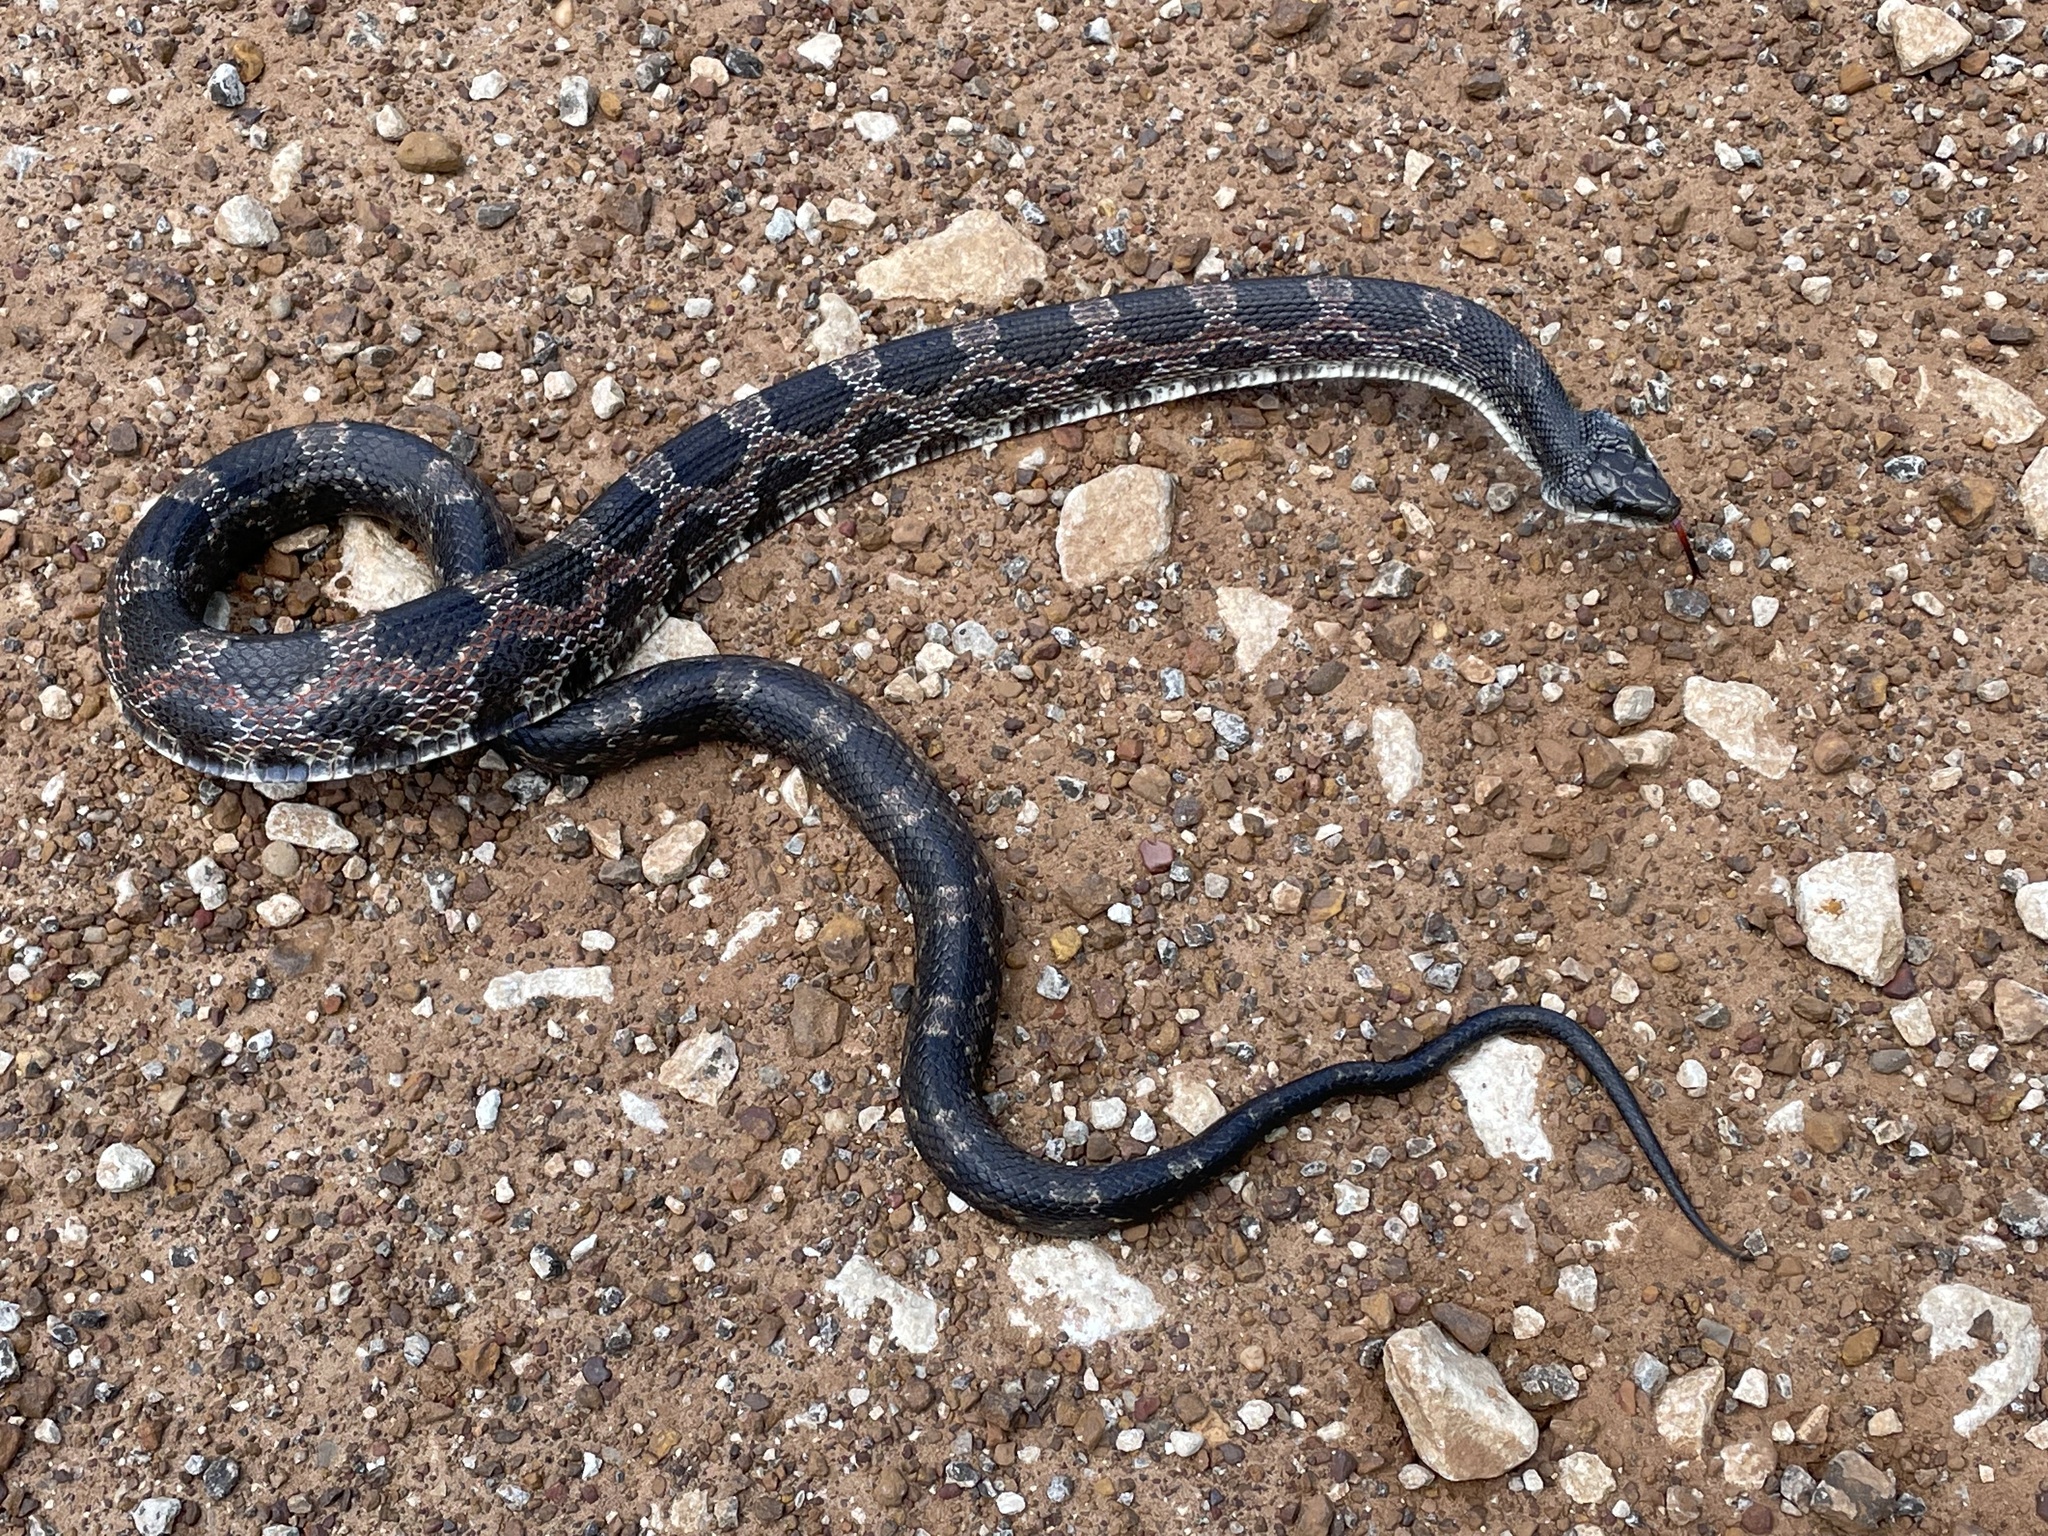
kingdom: Animalia
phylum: Chordata
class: Squamata
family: Colubridae
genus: Pantherophis
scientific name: Pantherophis obsoletus
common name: Black rat snake
